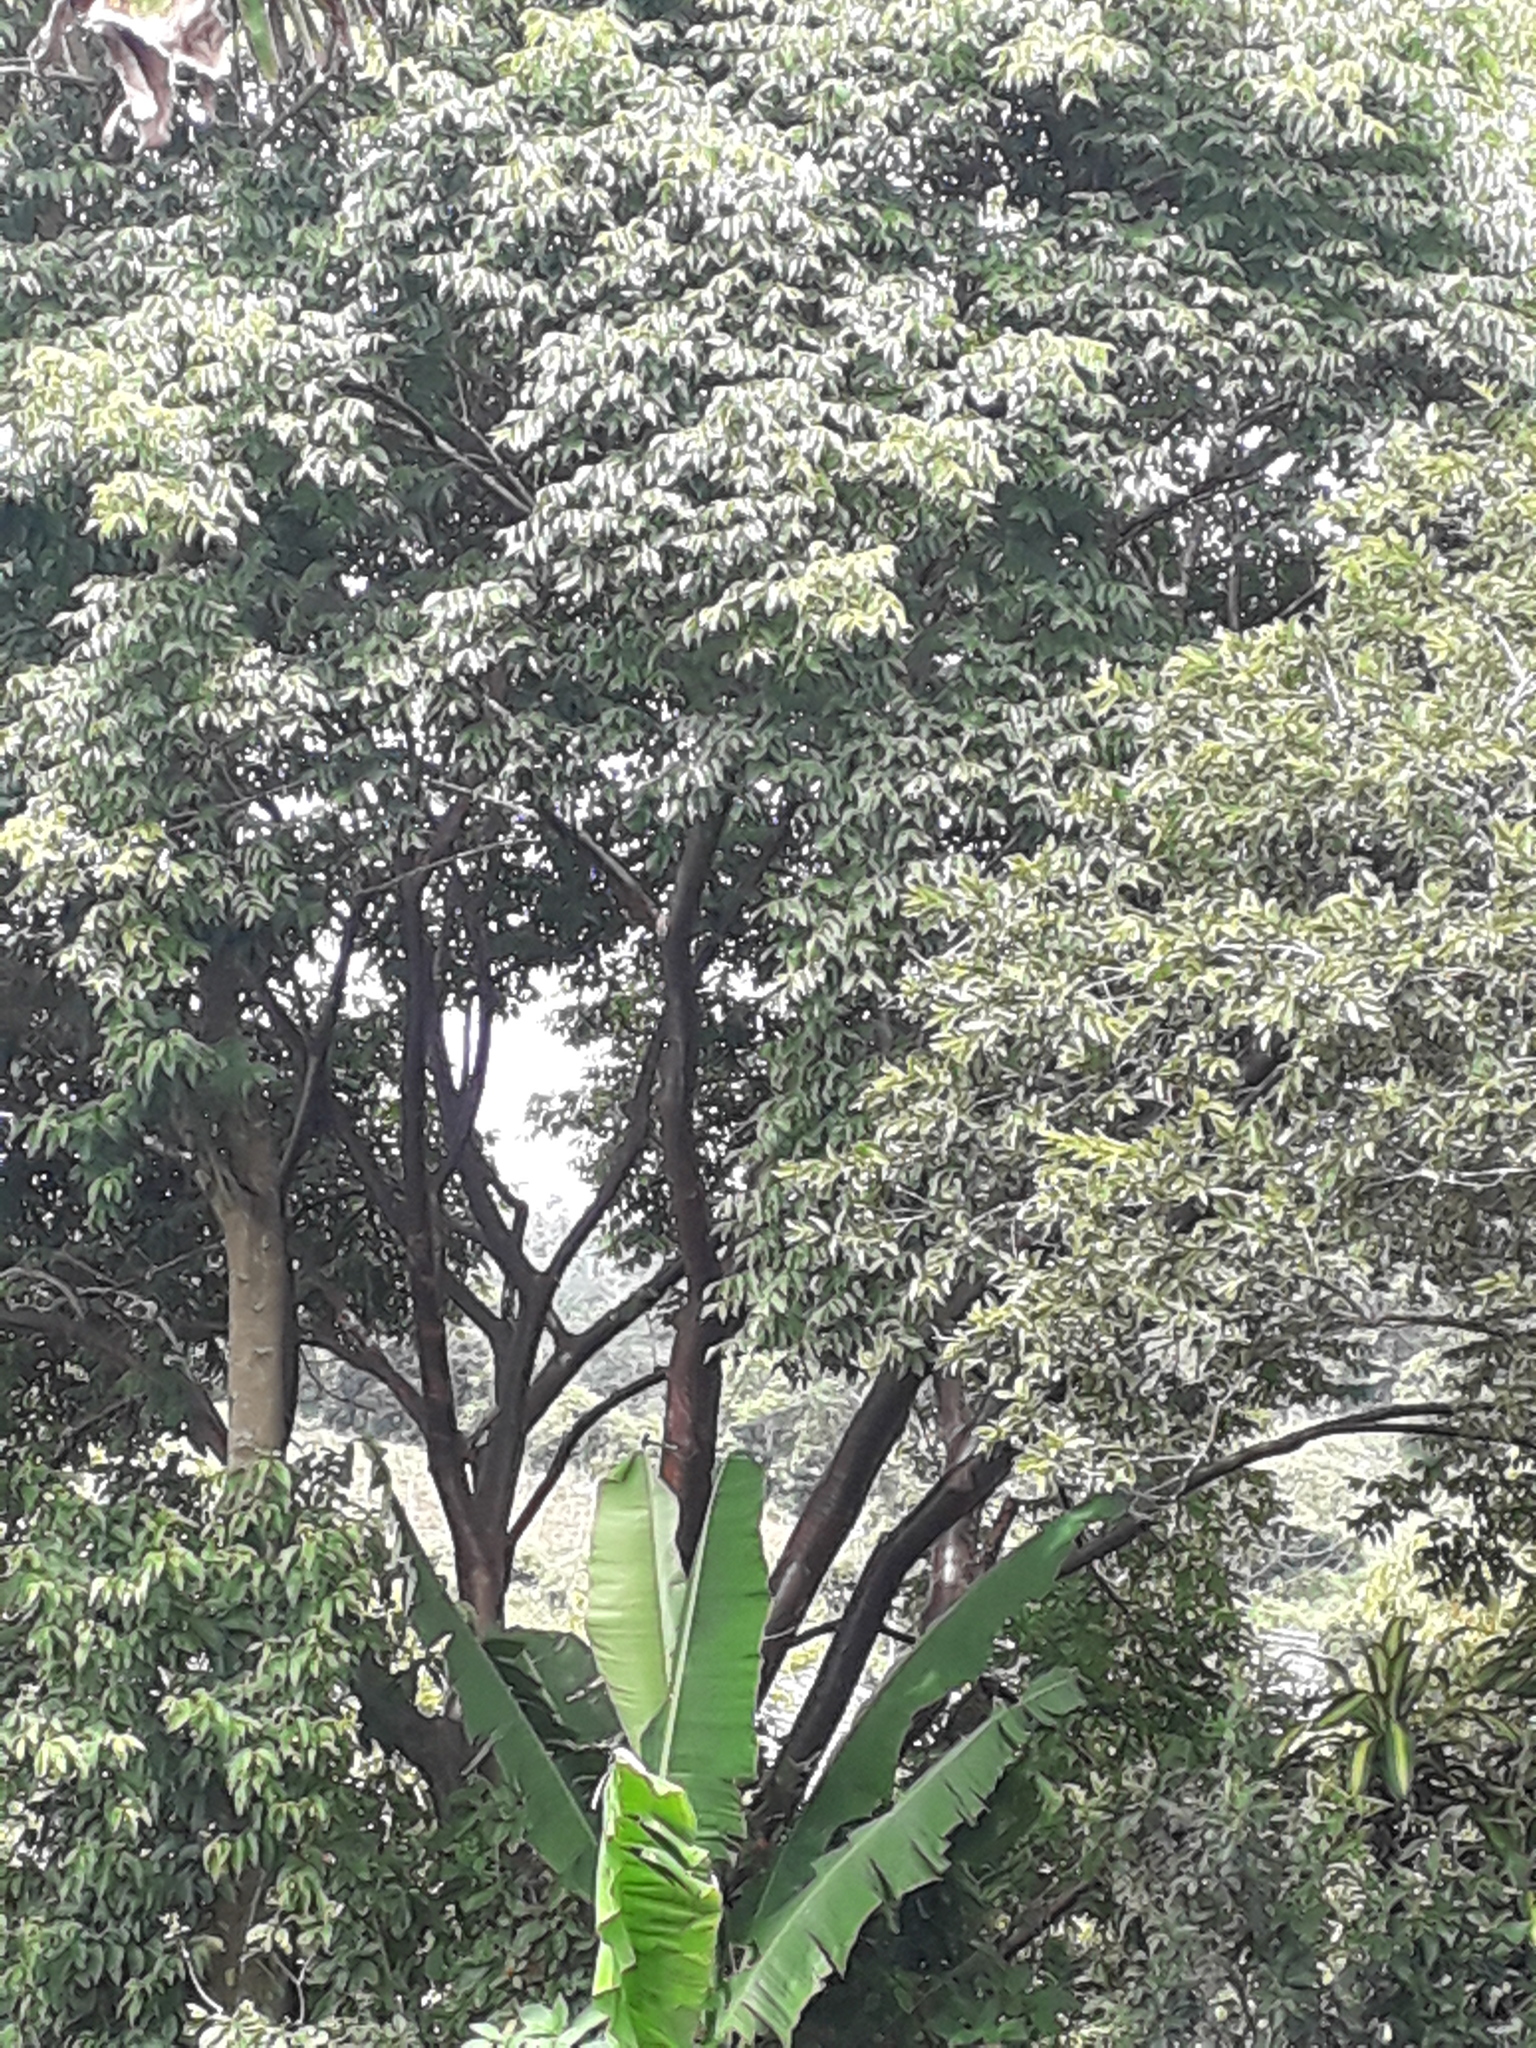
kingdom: Plantae
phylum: Tracheophyta
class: Magnoliopsida
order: Sapindales
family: Burseraceae
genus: Bursera
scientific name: Bursera simaruba
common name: Turpentine tree
